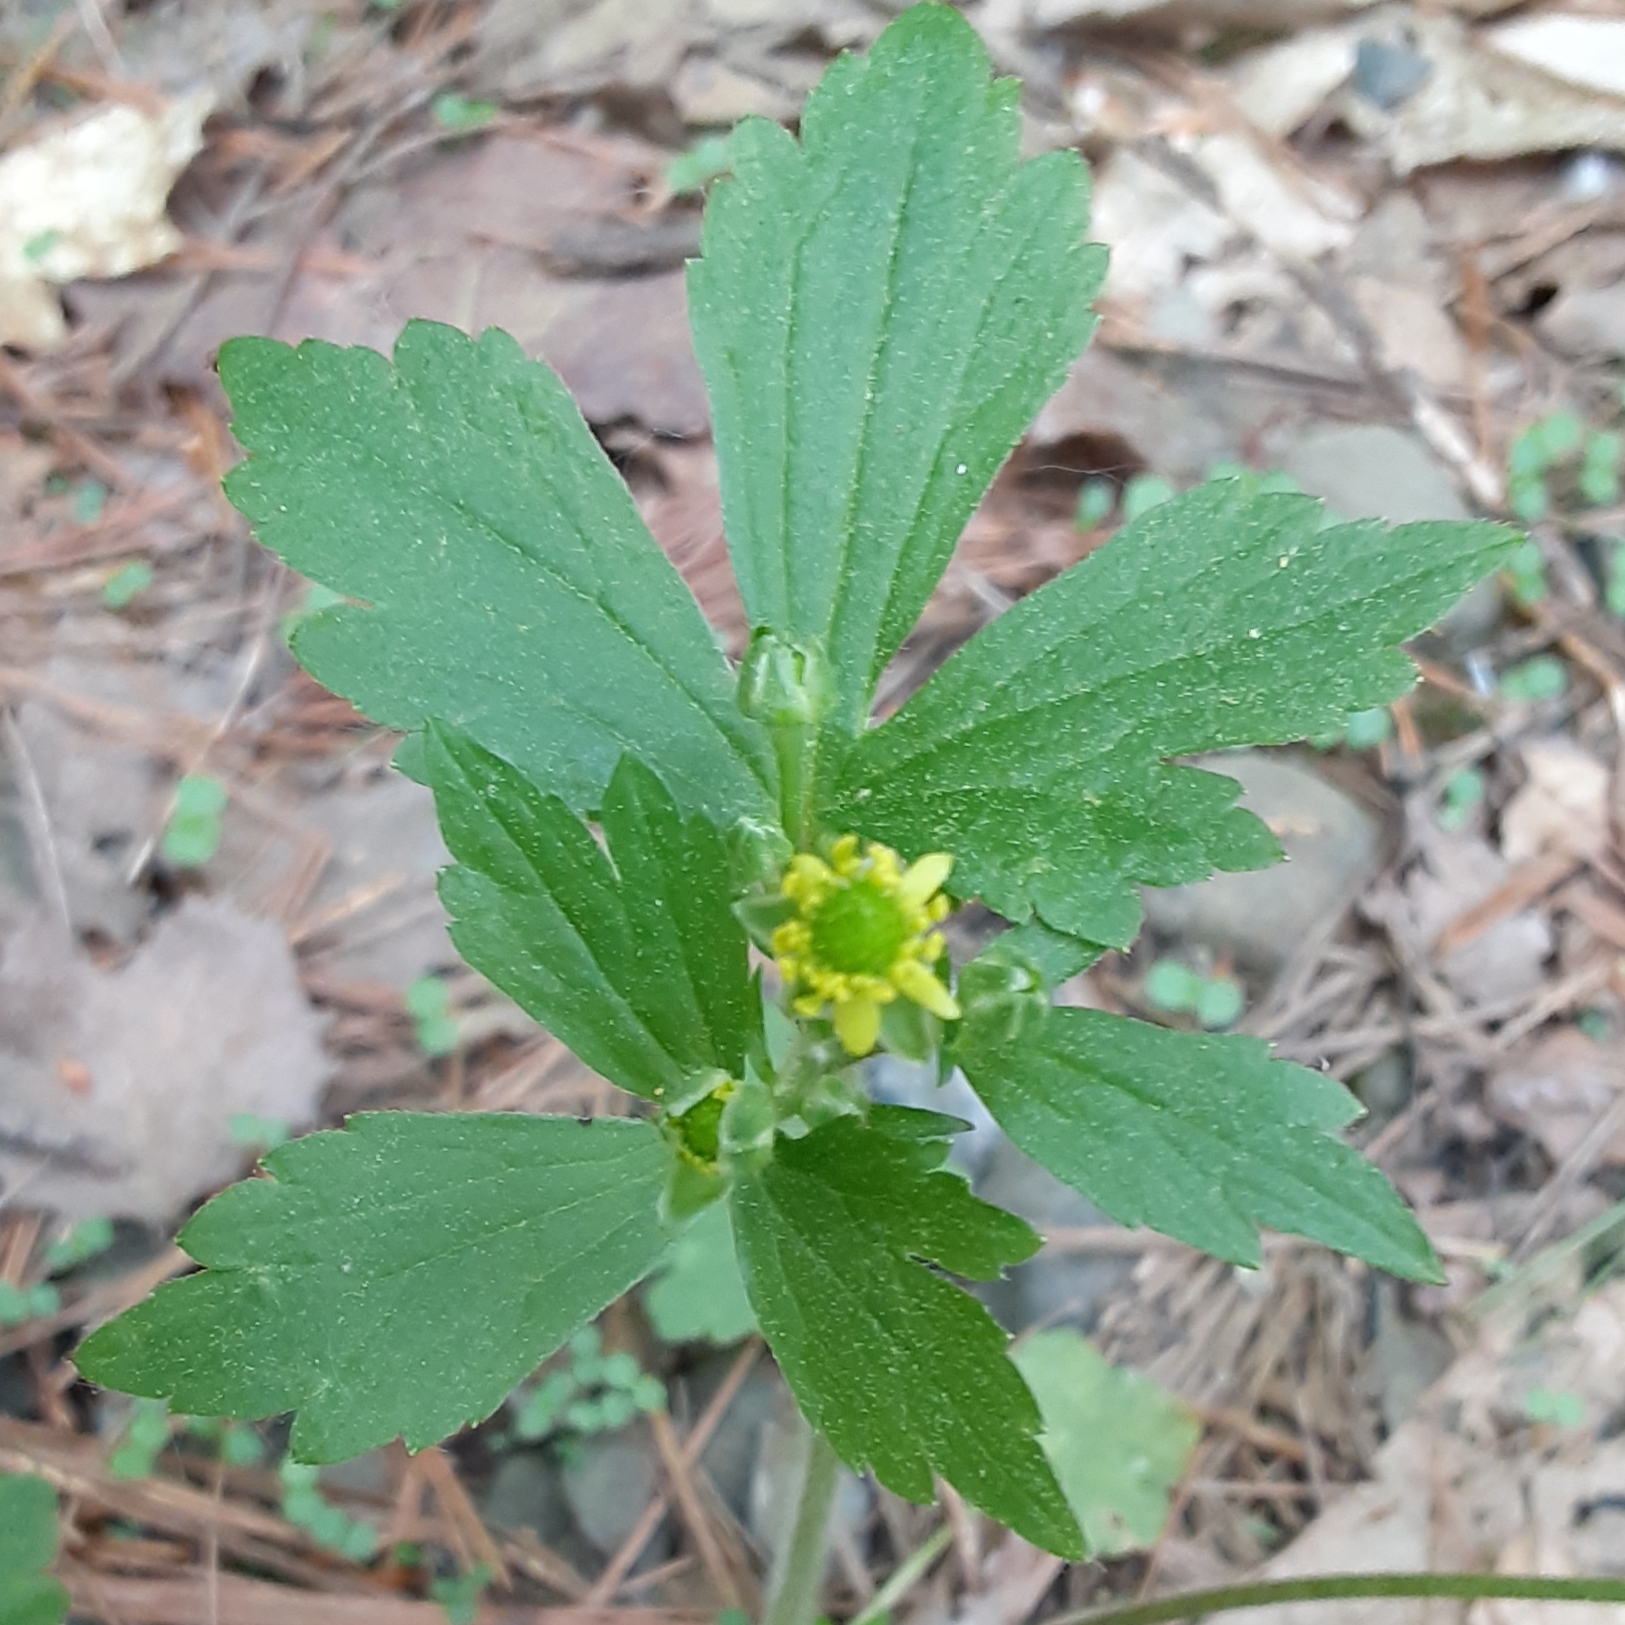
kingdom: Plantae
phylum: Tracheophyta
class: Magnoliopsida
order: Ranunculales
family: Ranunculaceae
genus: Ranunculus
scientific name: Ranunculus recurvatus
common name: Blisterwort
